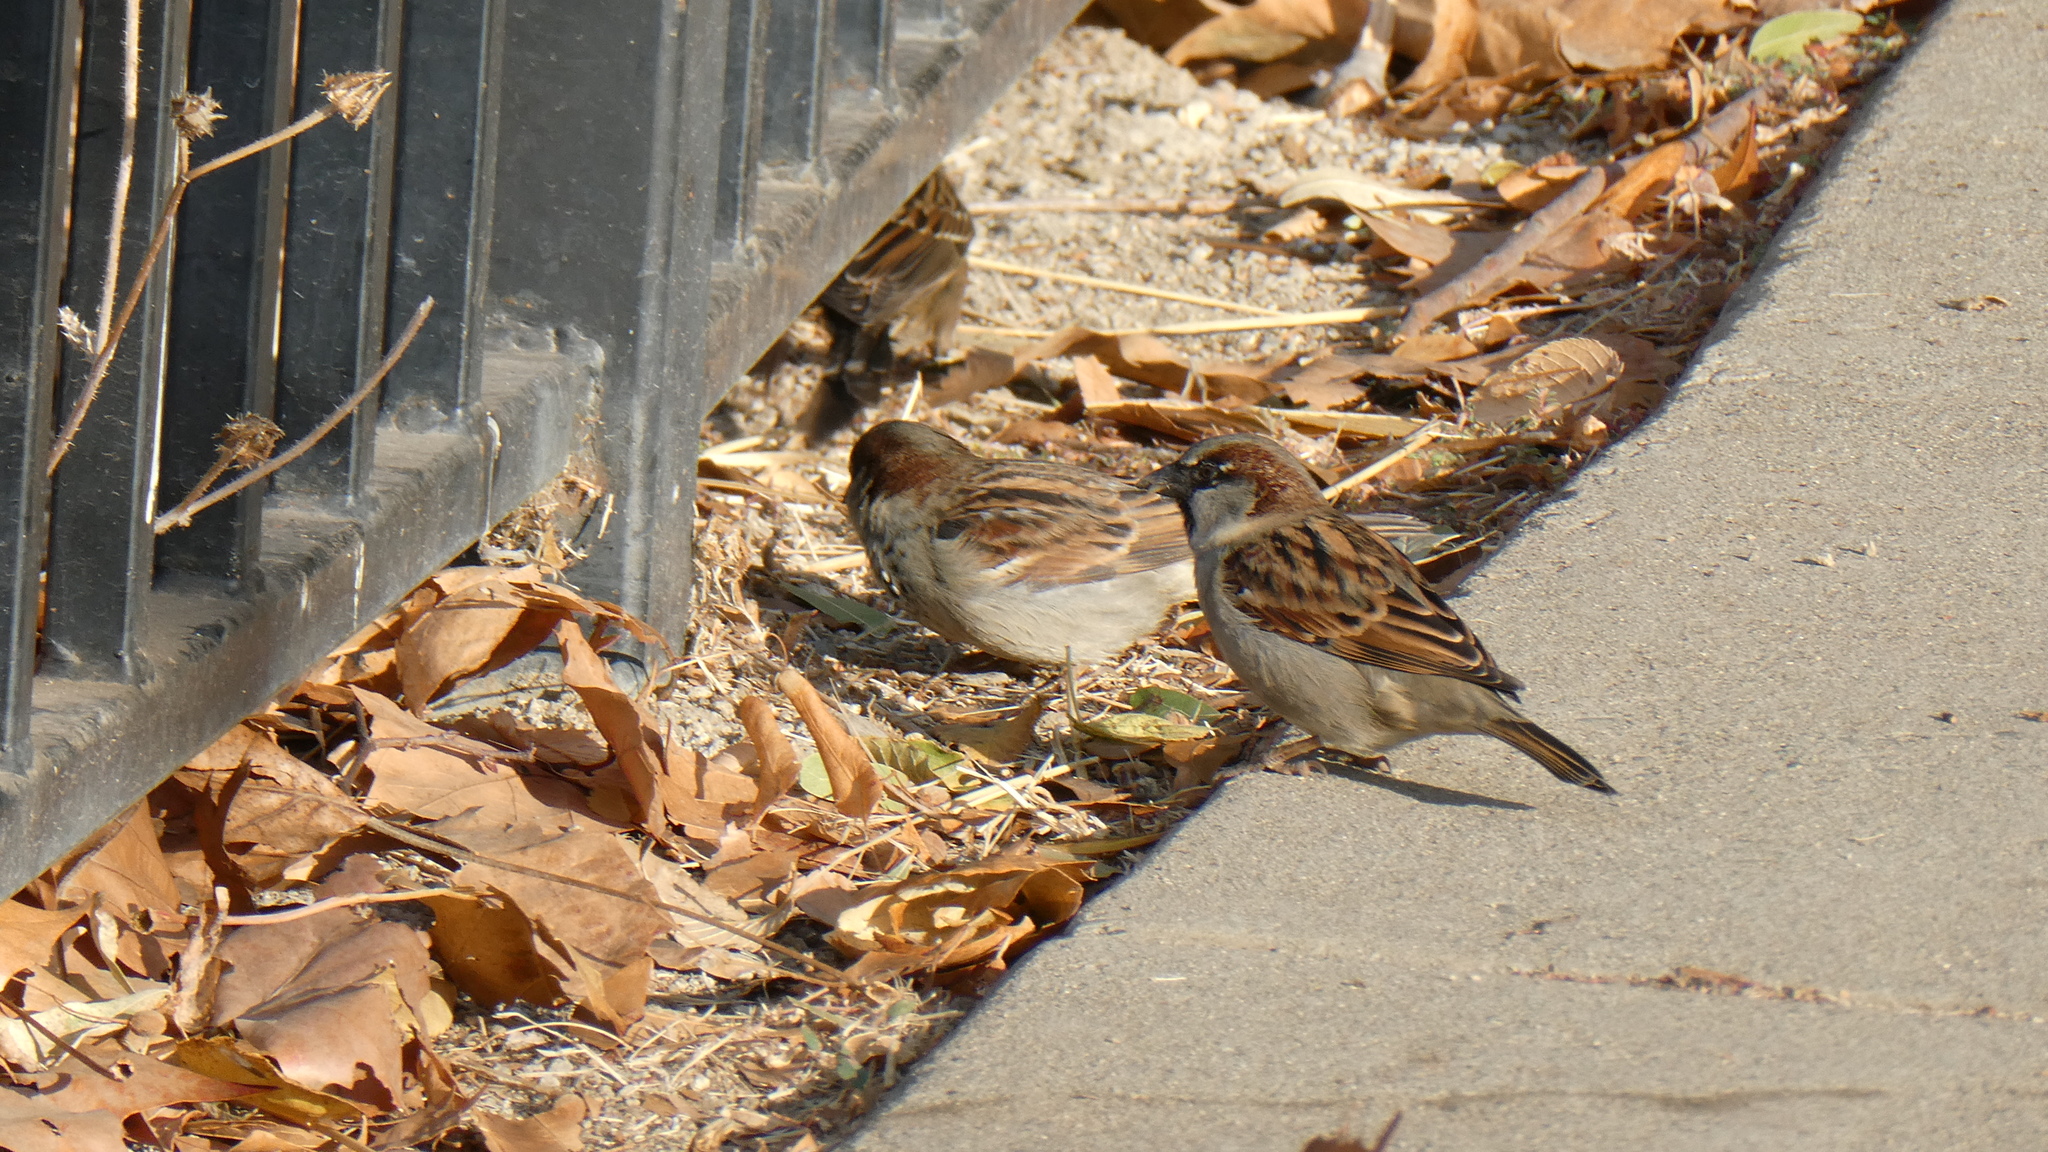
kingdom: Animalia
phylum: Chordata
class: Aves
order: Passeriformes
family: Passeridae
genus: Passer
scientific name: Passer domesticus
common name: House sparrow
